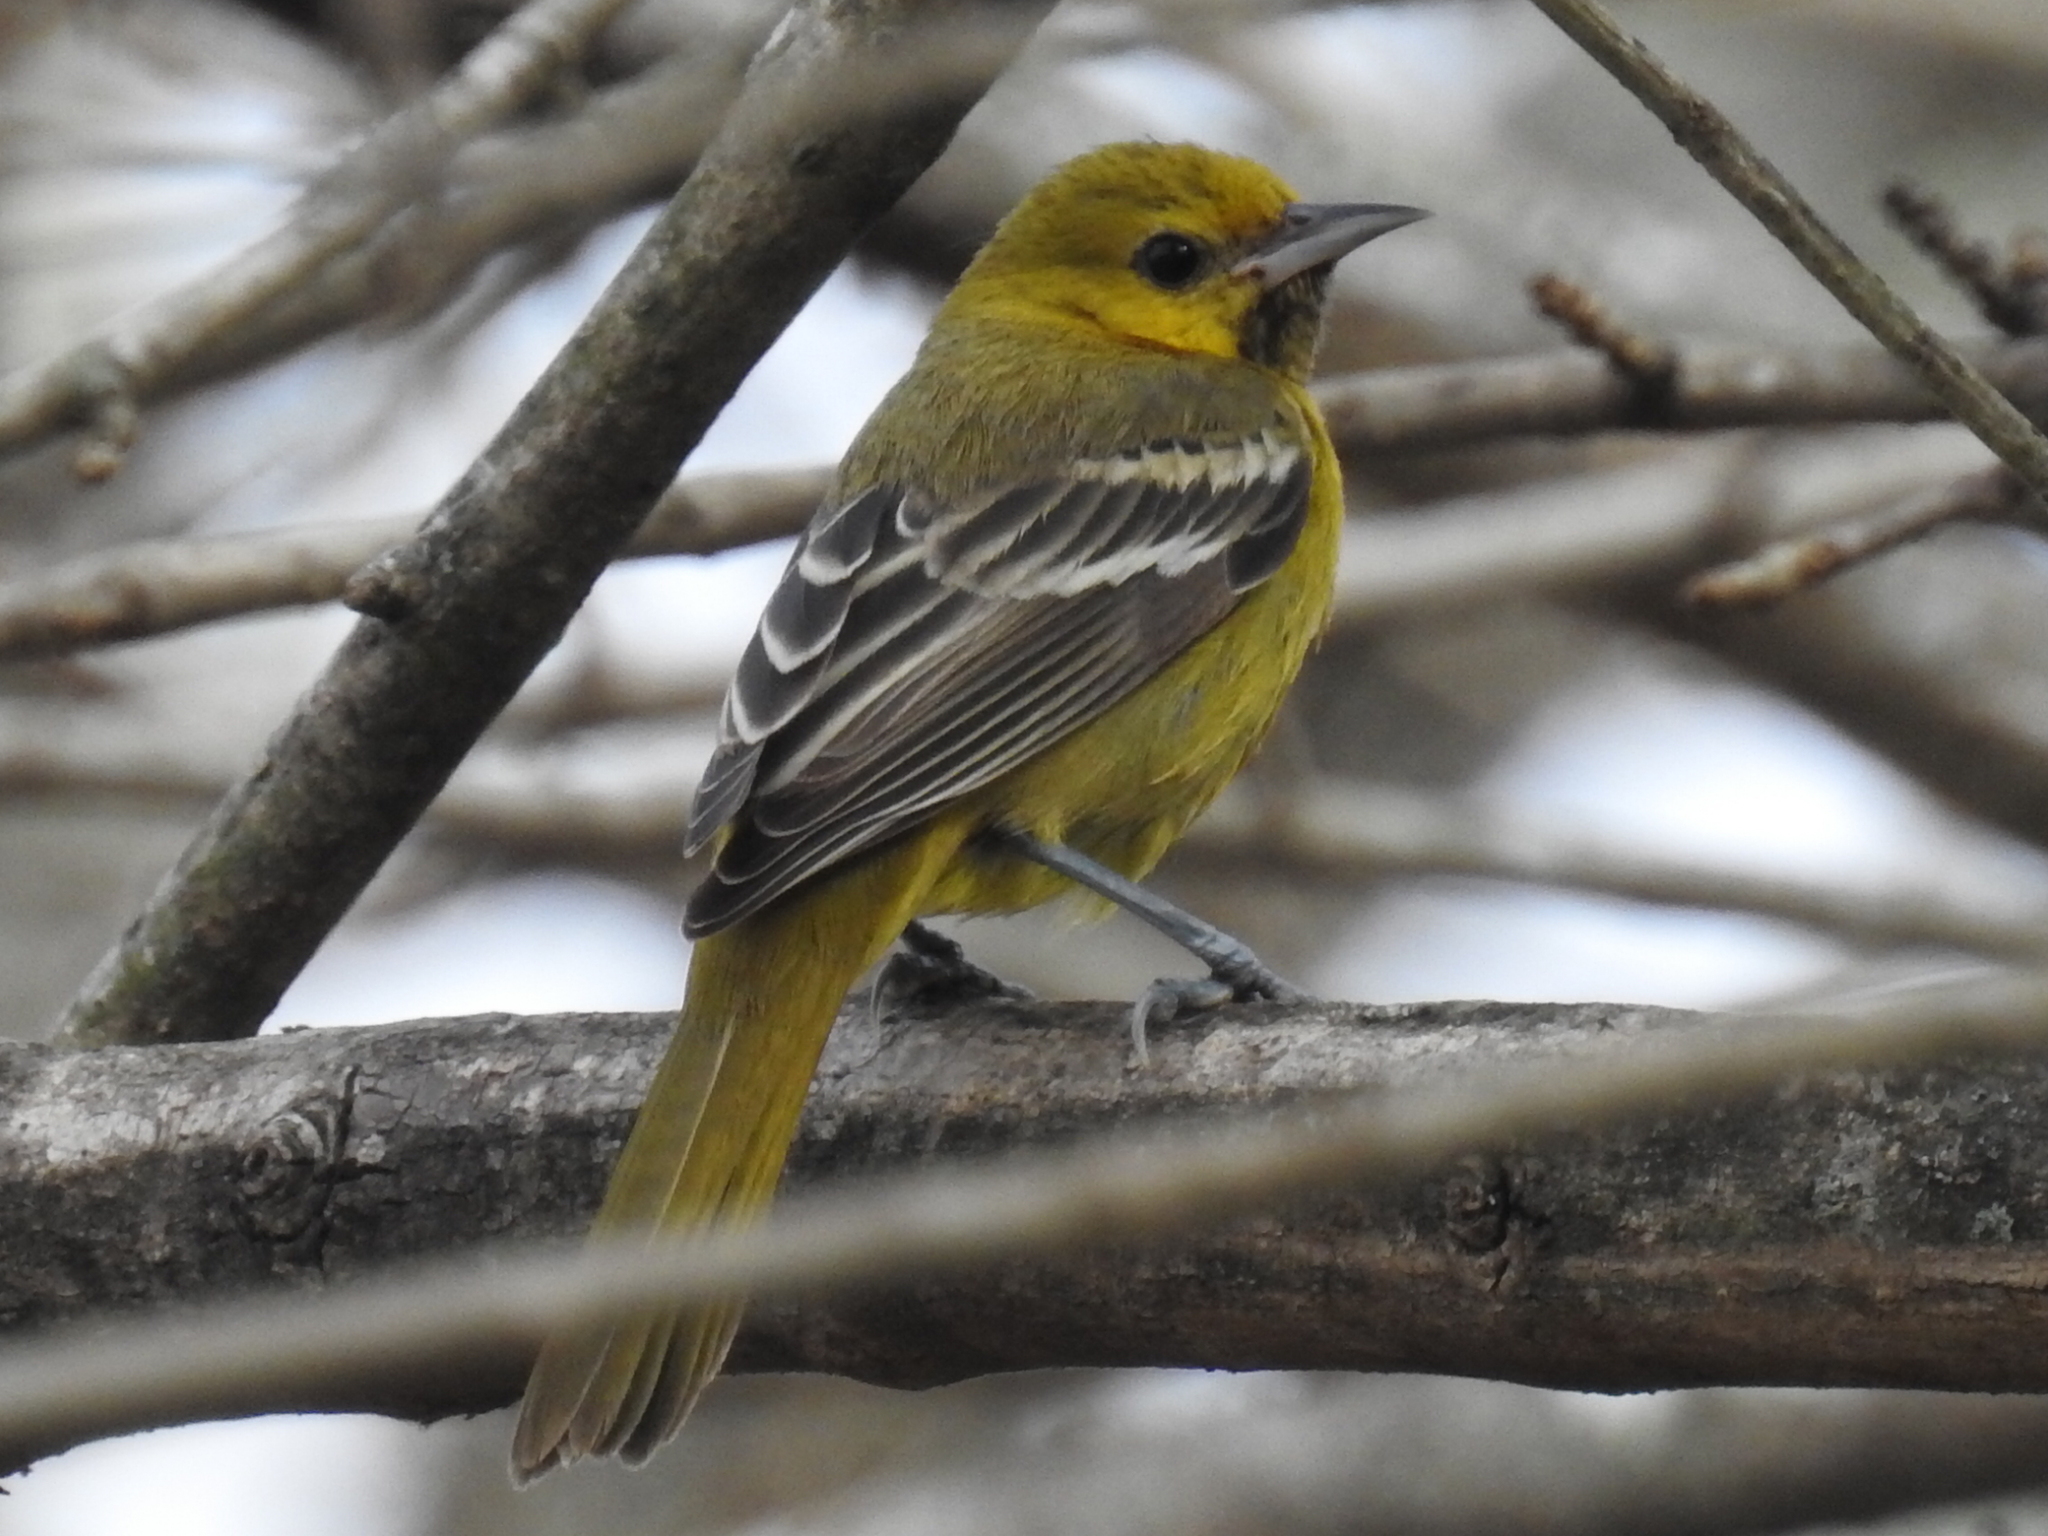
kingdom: Animalia
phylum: Chordata
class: Aves
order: Passeriformes
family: Icteridae
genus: Icterus
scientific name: Icterus spurius
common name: Orchard oriole
